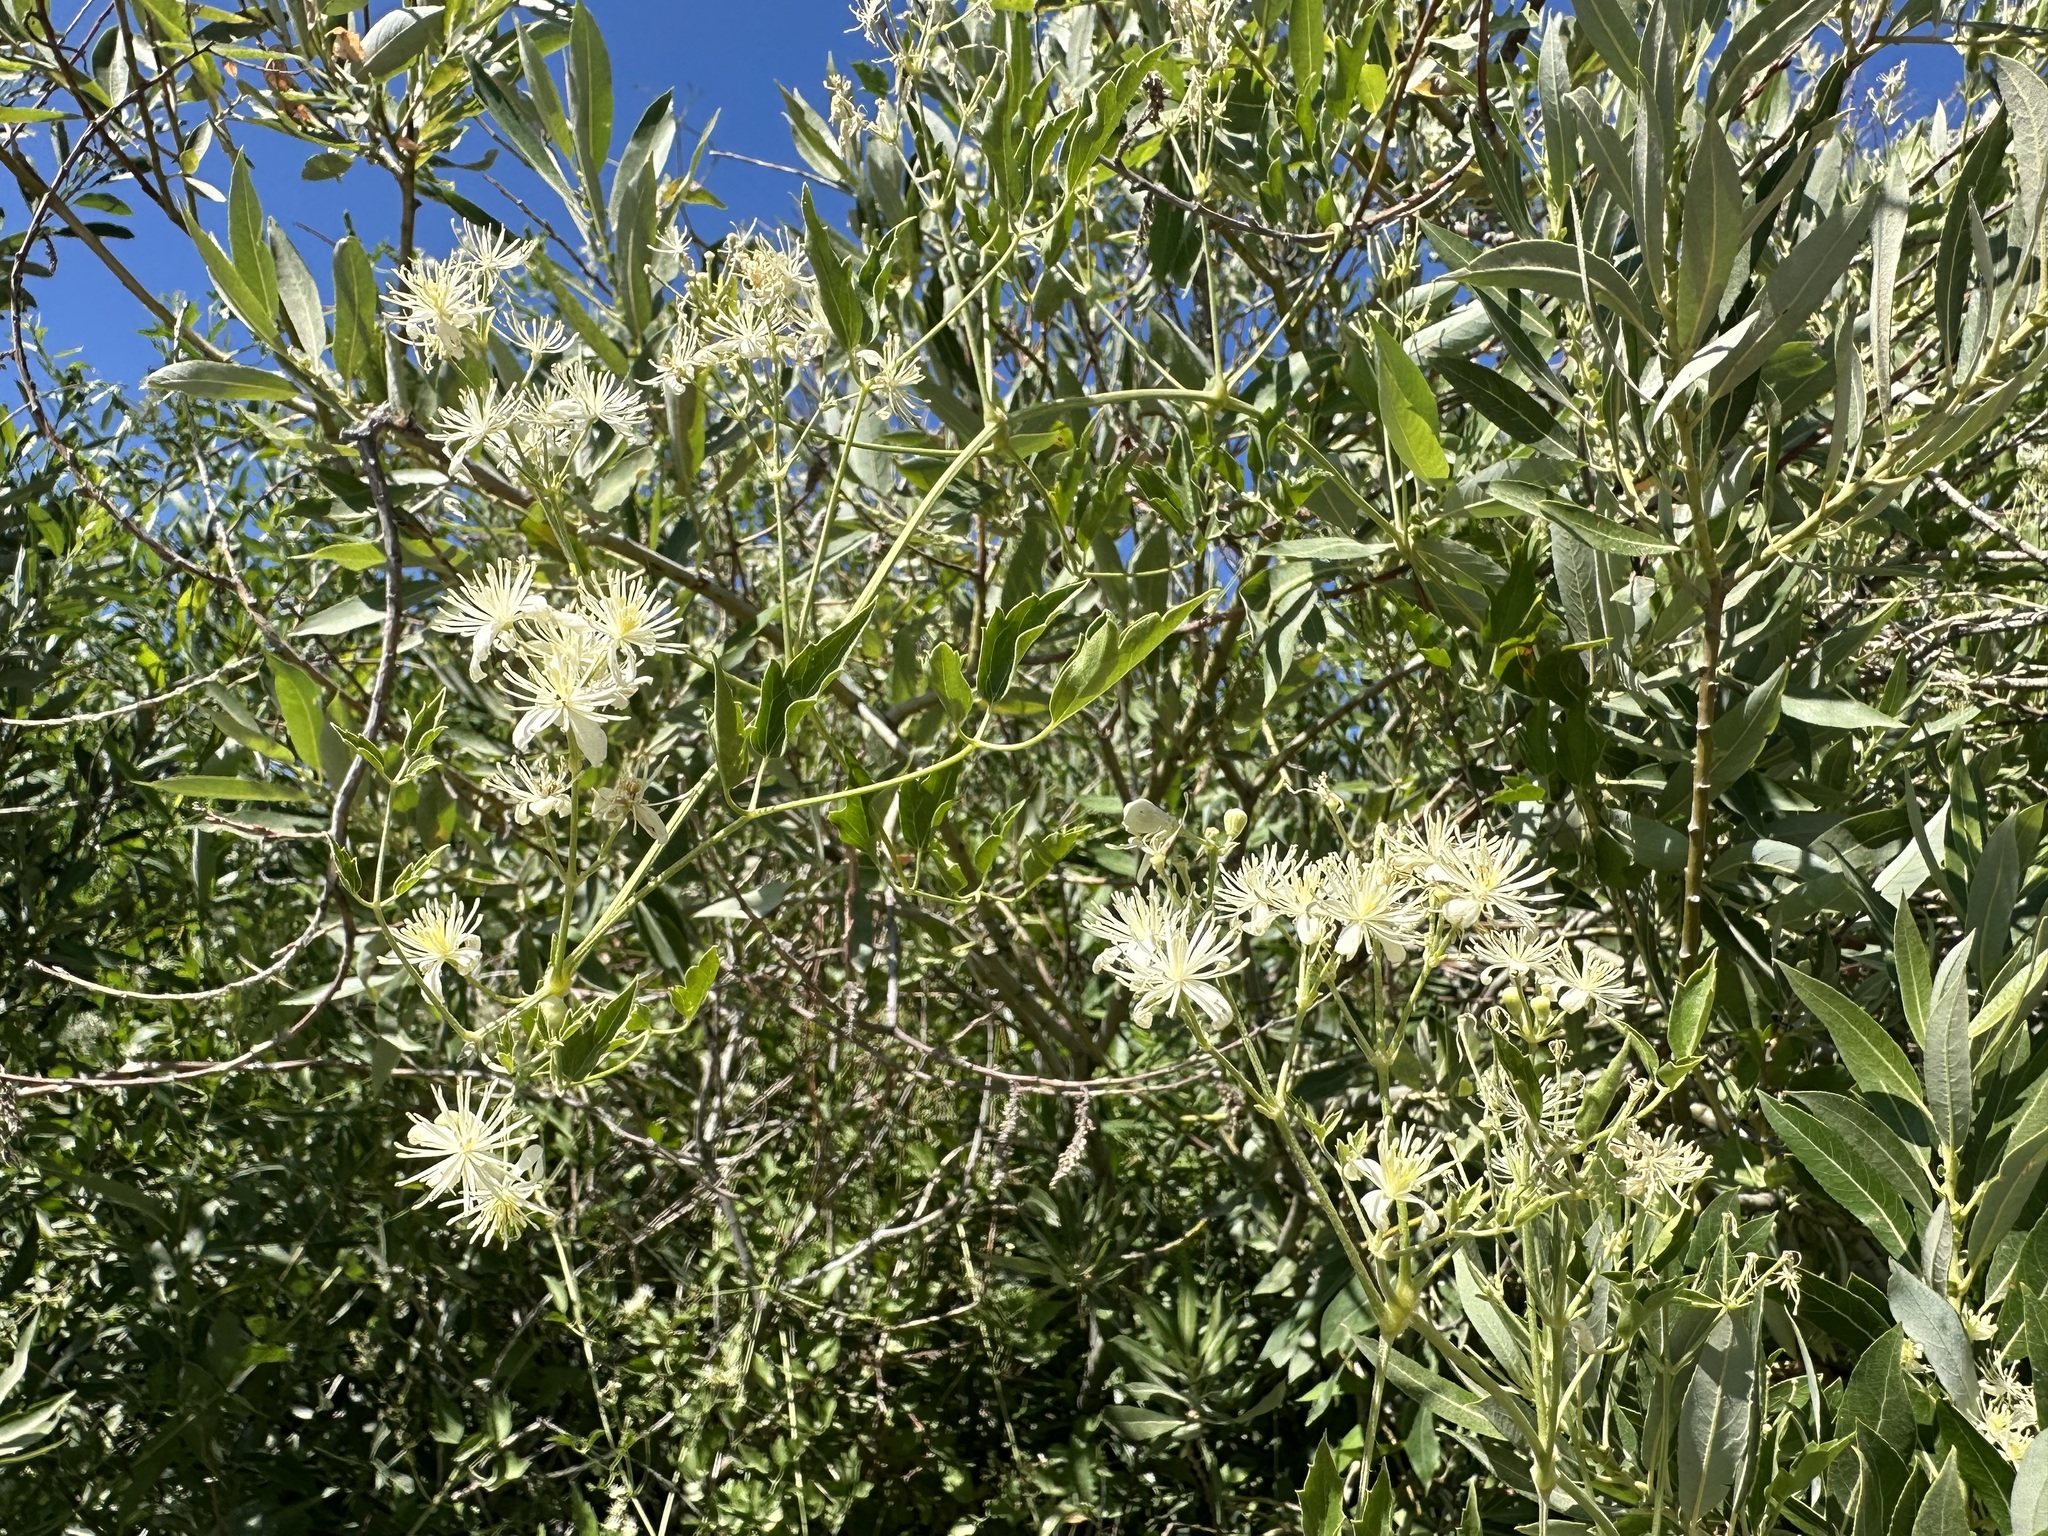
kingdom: Plantae
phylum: Tracheophyta
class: Magnoliopsida
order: Ranunculales
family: Ranunculaceae
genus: Clematis
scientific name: Clematis ligusticifolia
